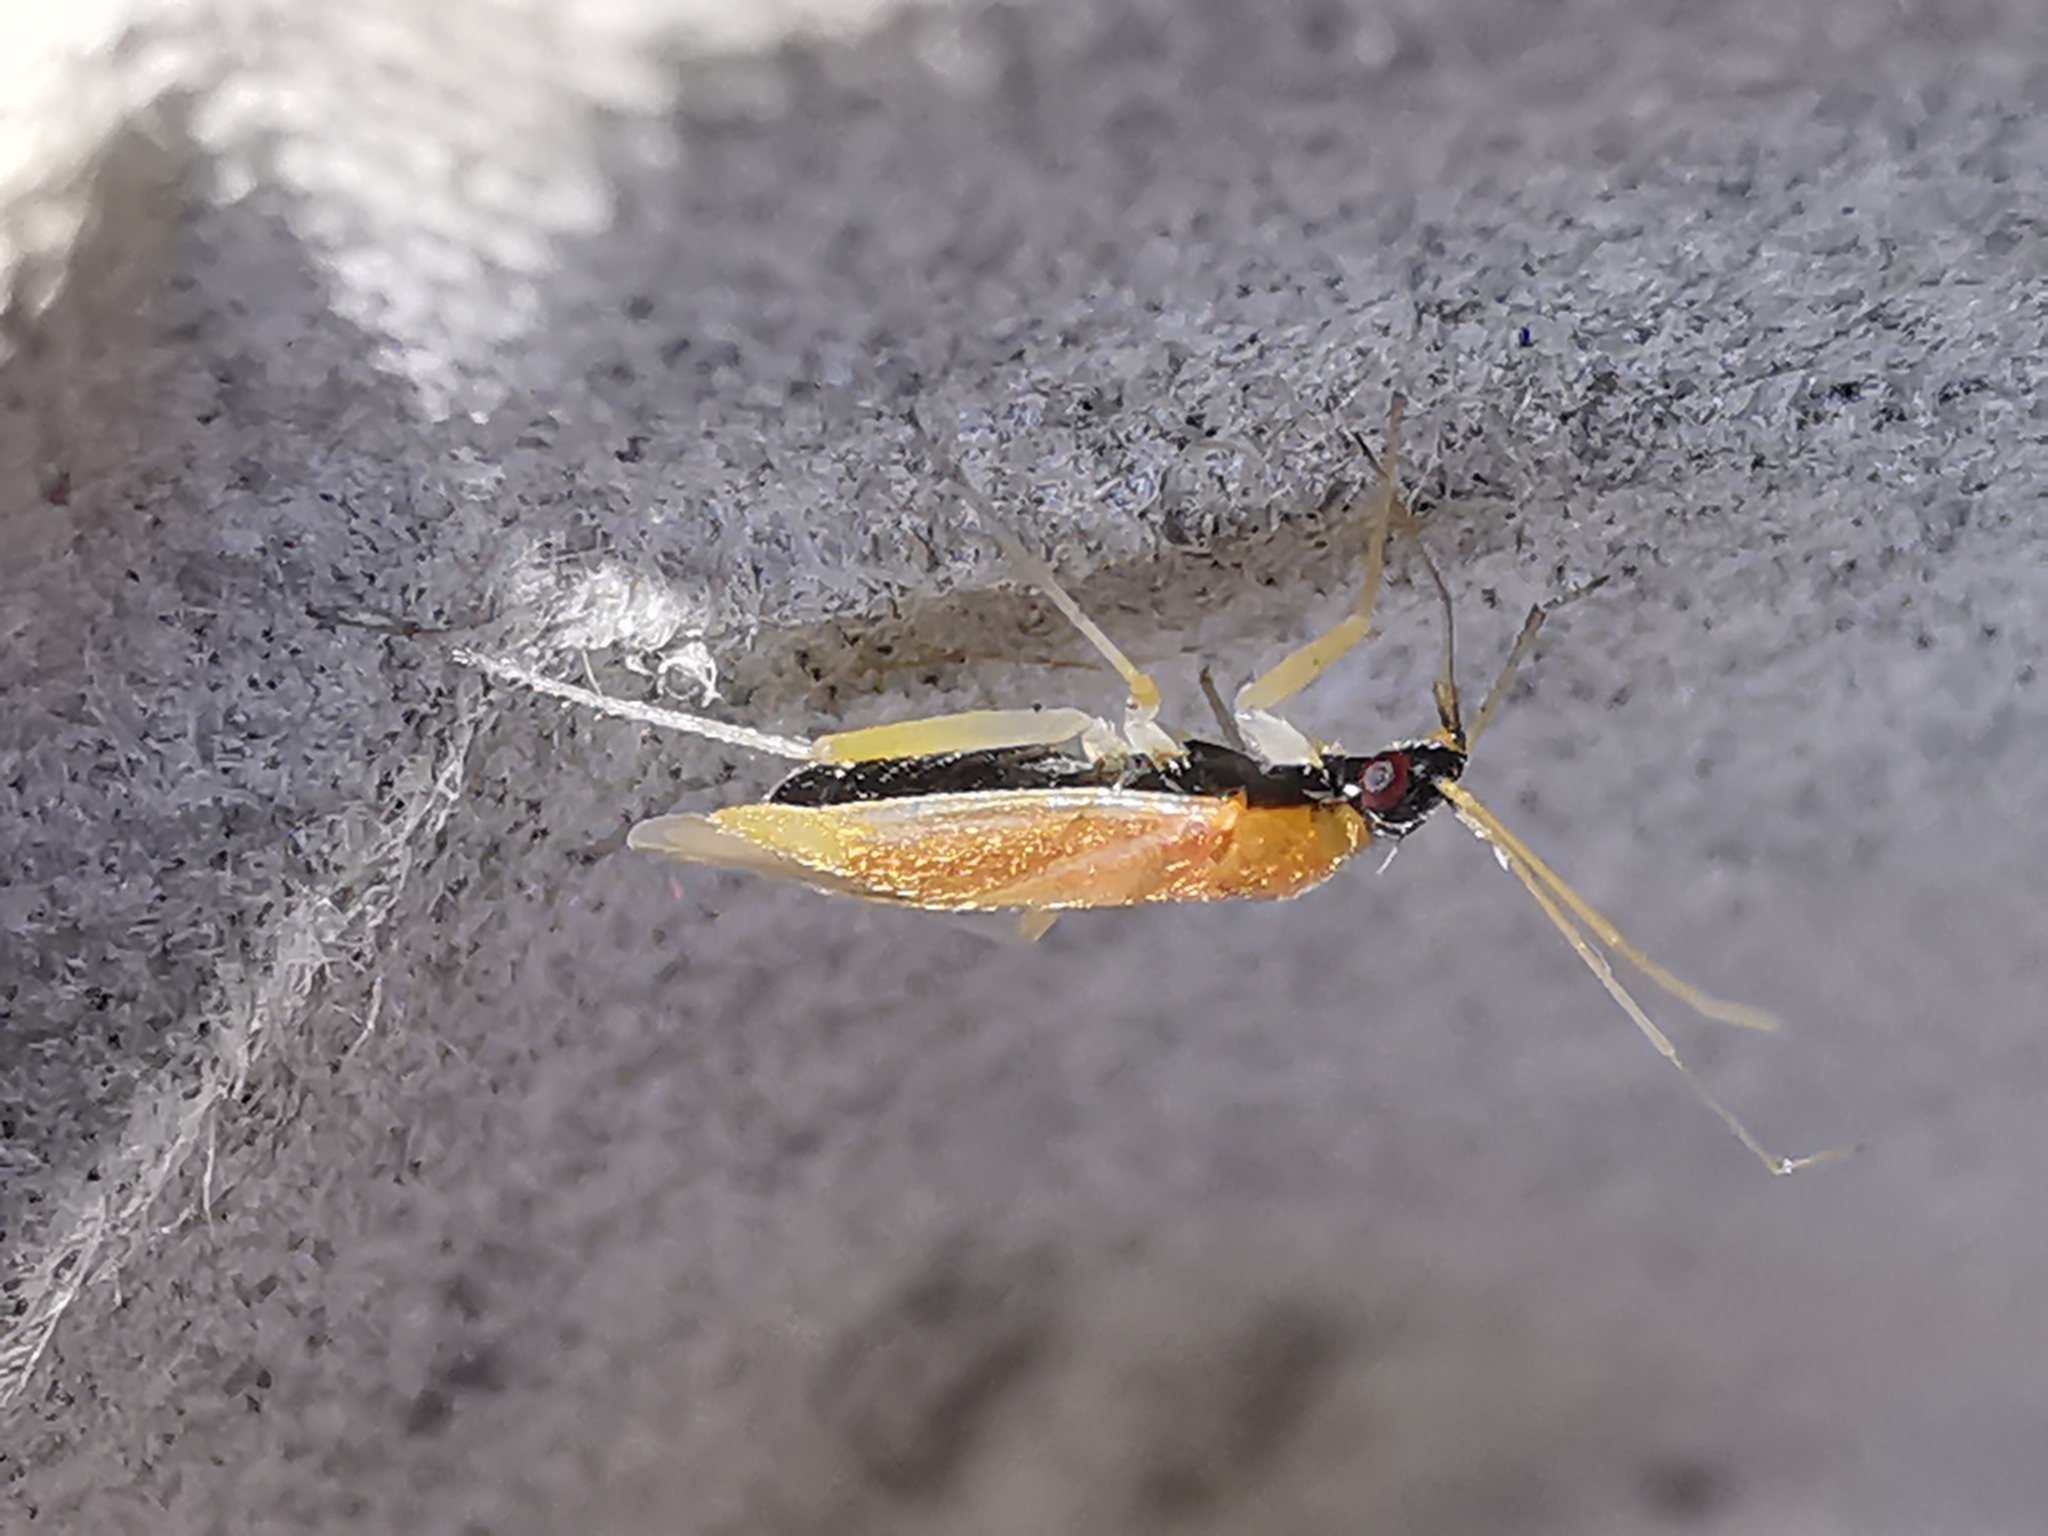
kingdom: Animalia
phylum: Arthropoda
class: Insecta
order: Hemiptera
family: Miridae
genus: Phylus
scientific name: Phylus melanocephalus
